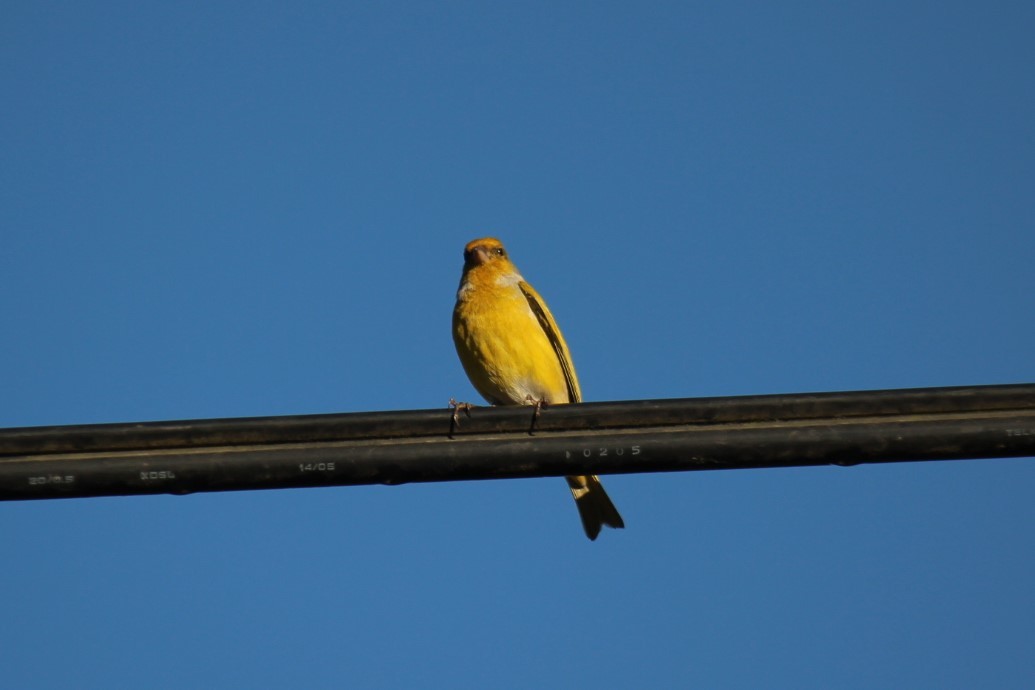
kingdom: Animalia
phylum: Chordata
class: Aves
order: Passeriformes
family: Fringillidae
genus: Serinus
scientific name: Serinus canicollis
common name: Cape canary
